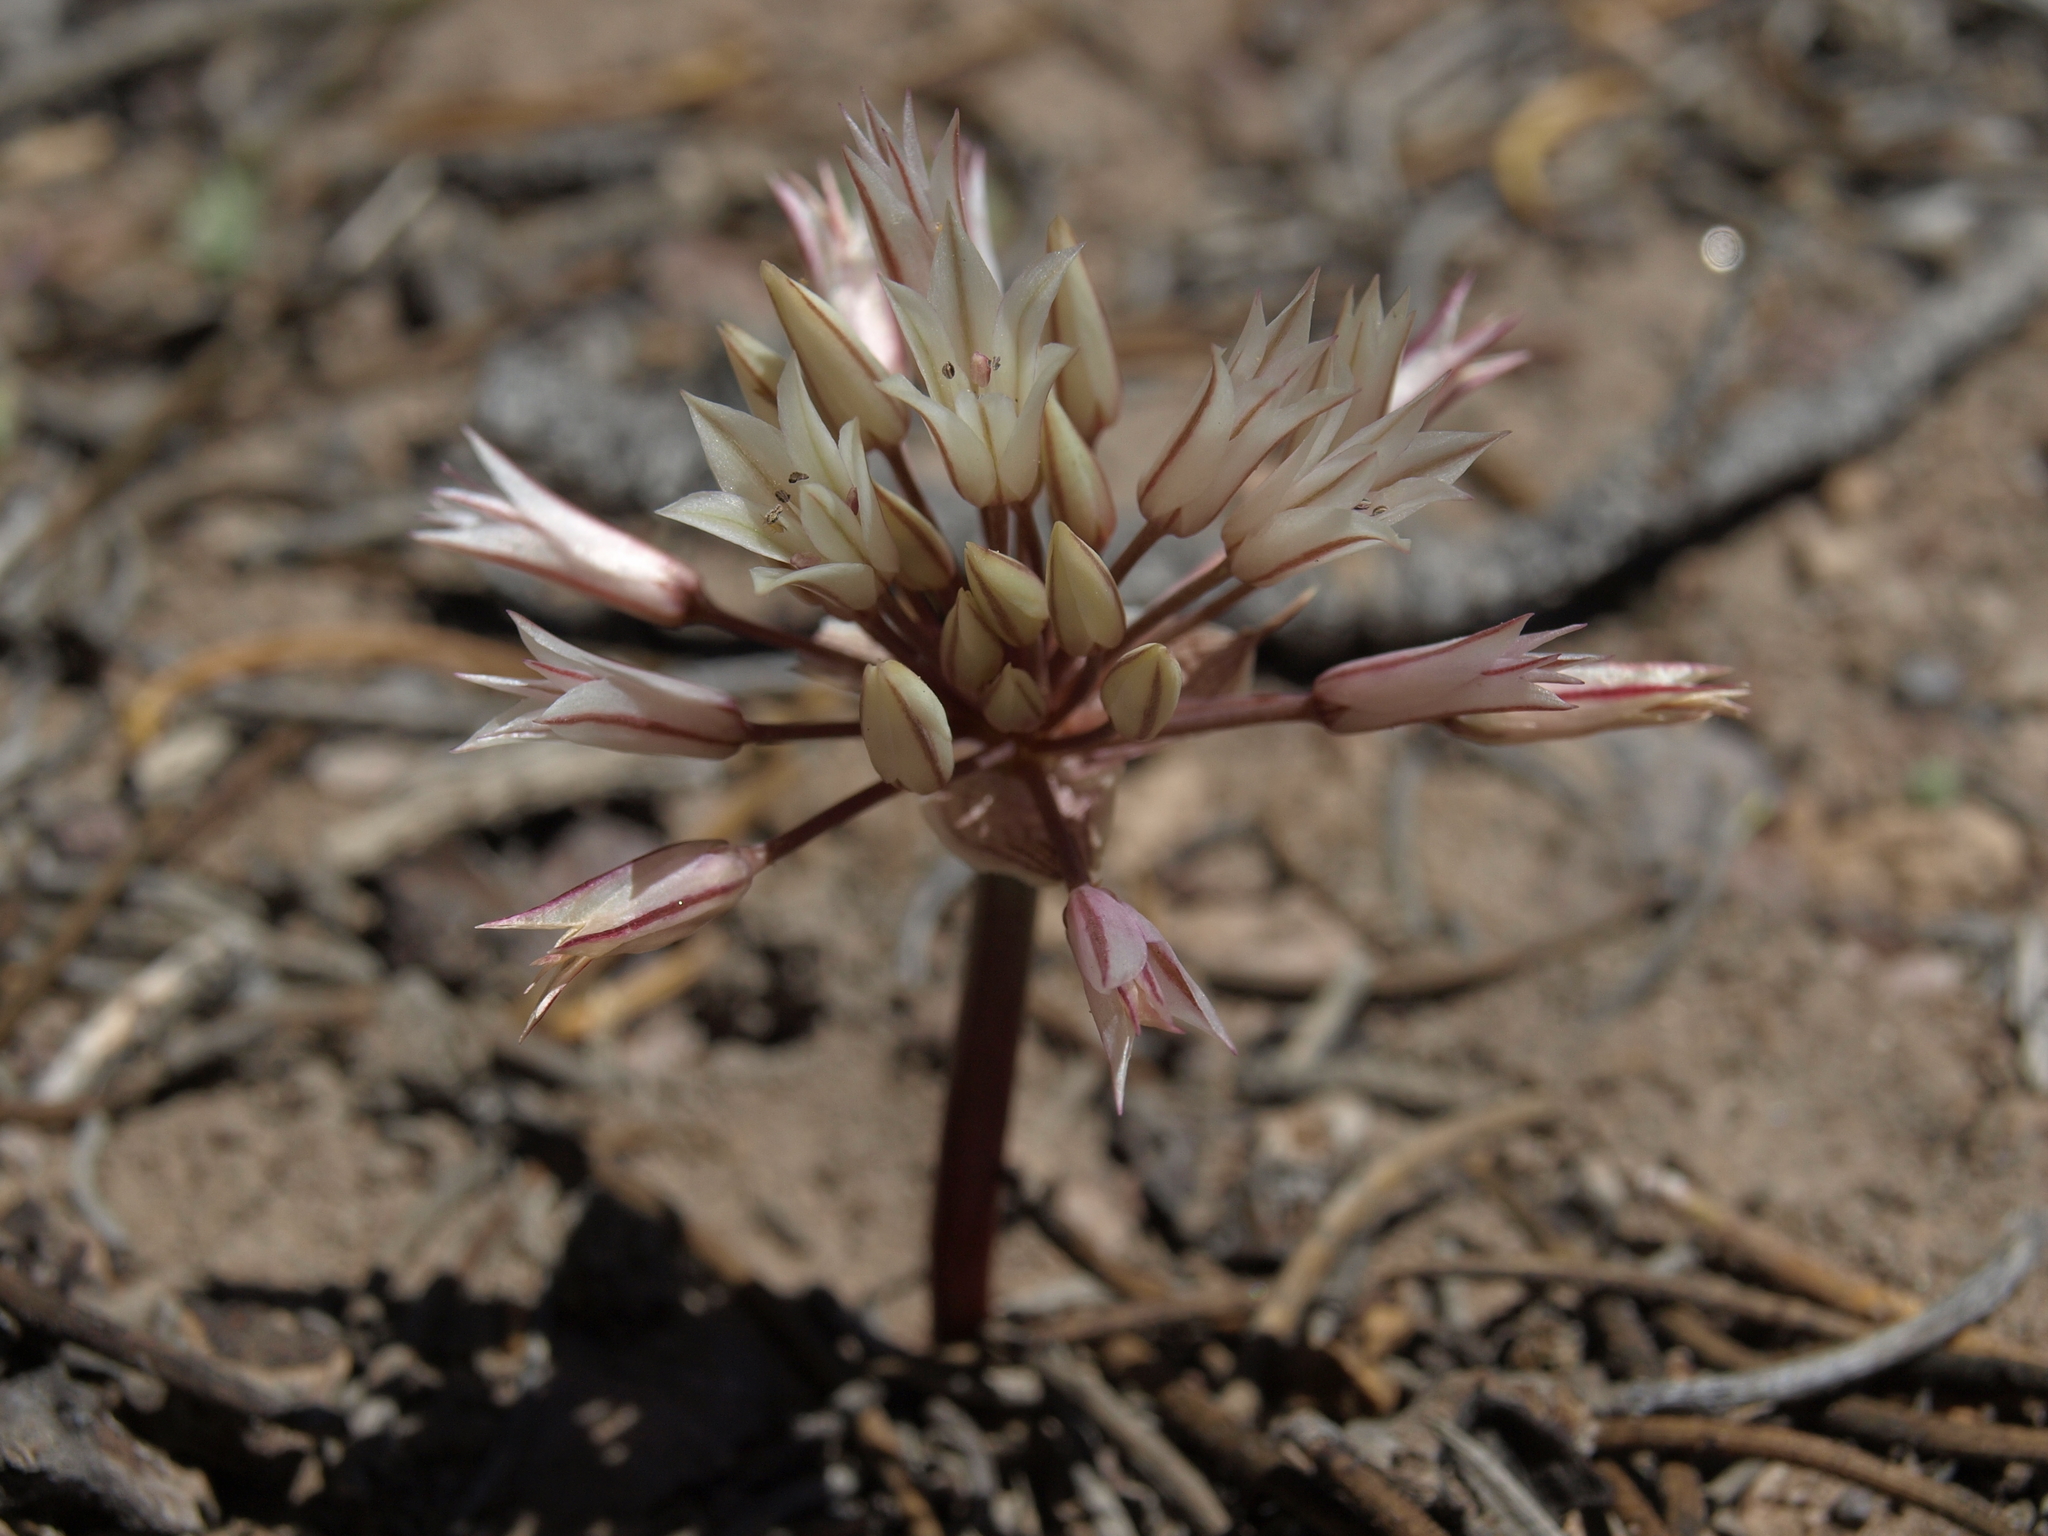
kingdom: Plantae
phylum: Tracheophyta
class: Liliopsida
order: Asparagales
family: Amaryllidaceae
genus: Allium
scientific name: Allium atrorubens
